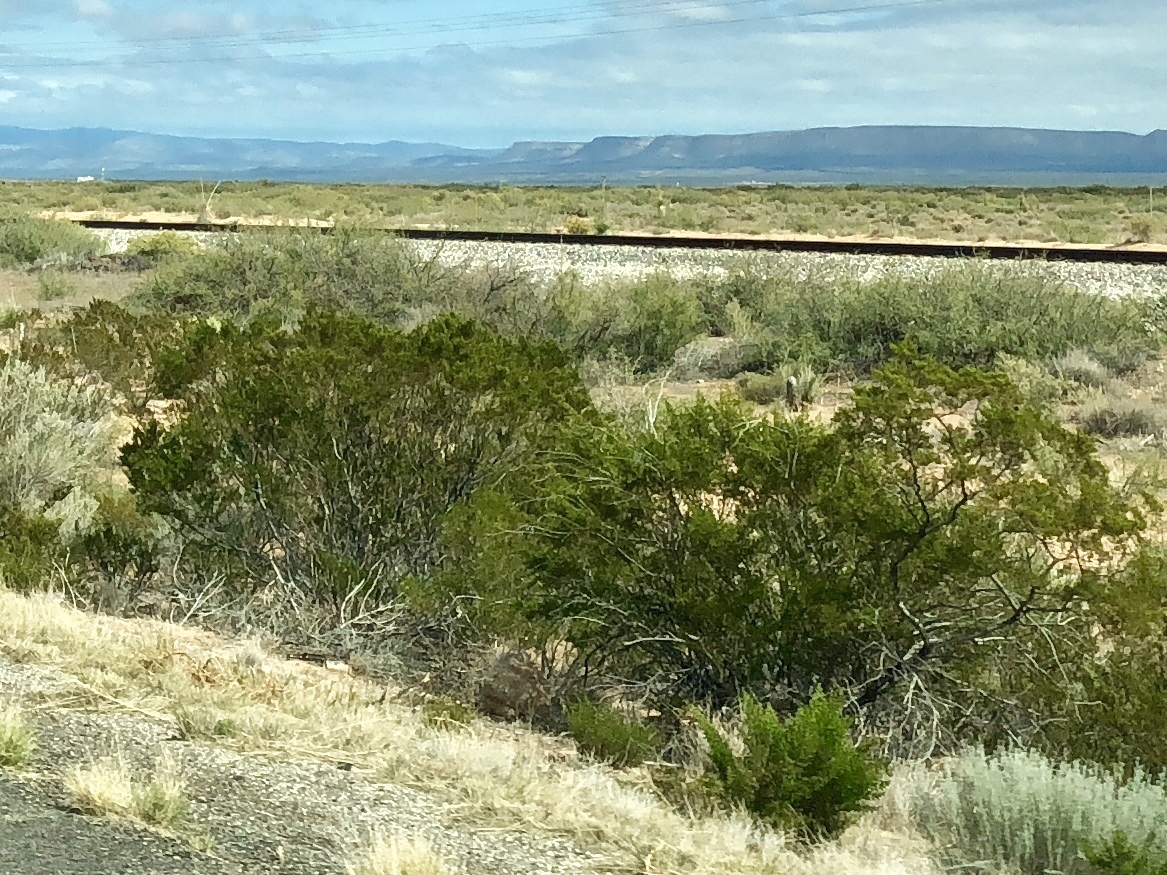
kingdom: Plantae
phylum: Tracheophyta
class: Magnoliopsida
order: Zygophyllales
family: Zygophyllaceae
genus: Larrea
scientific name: Larrea tridentata
